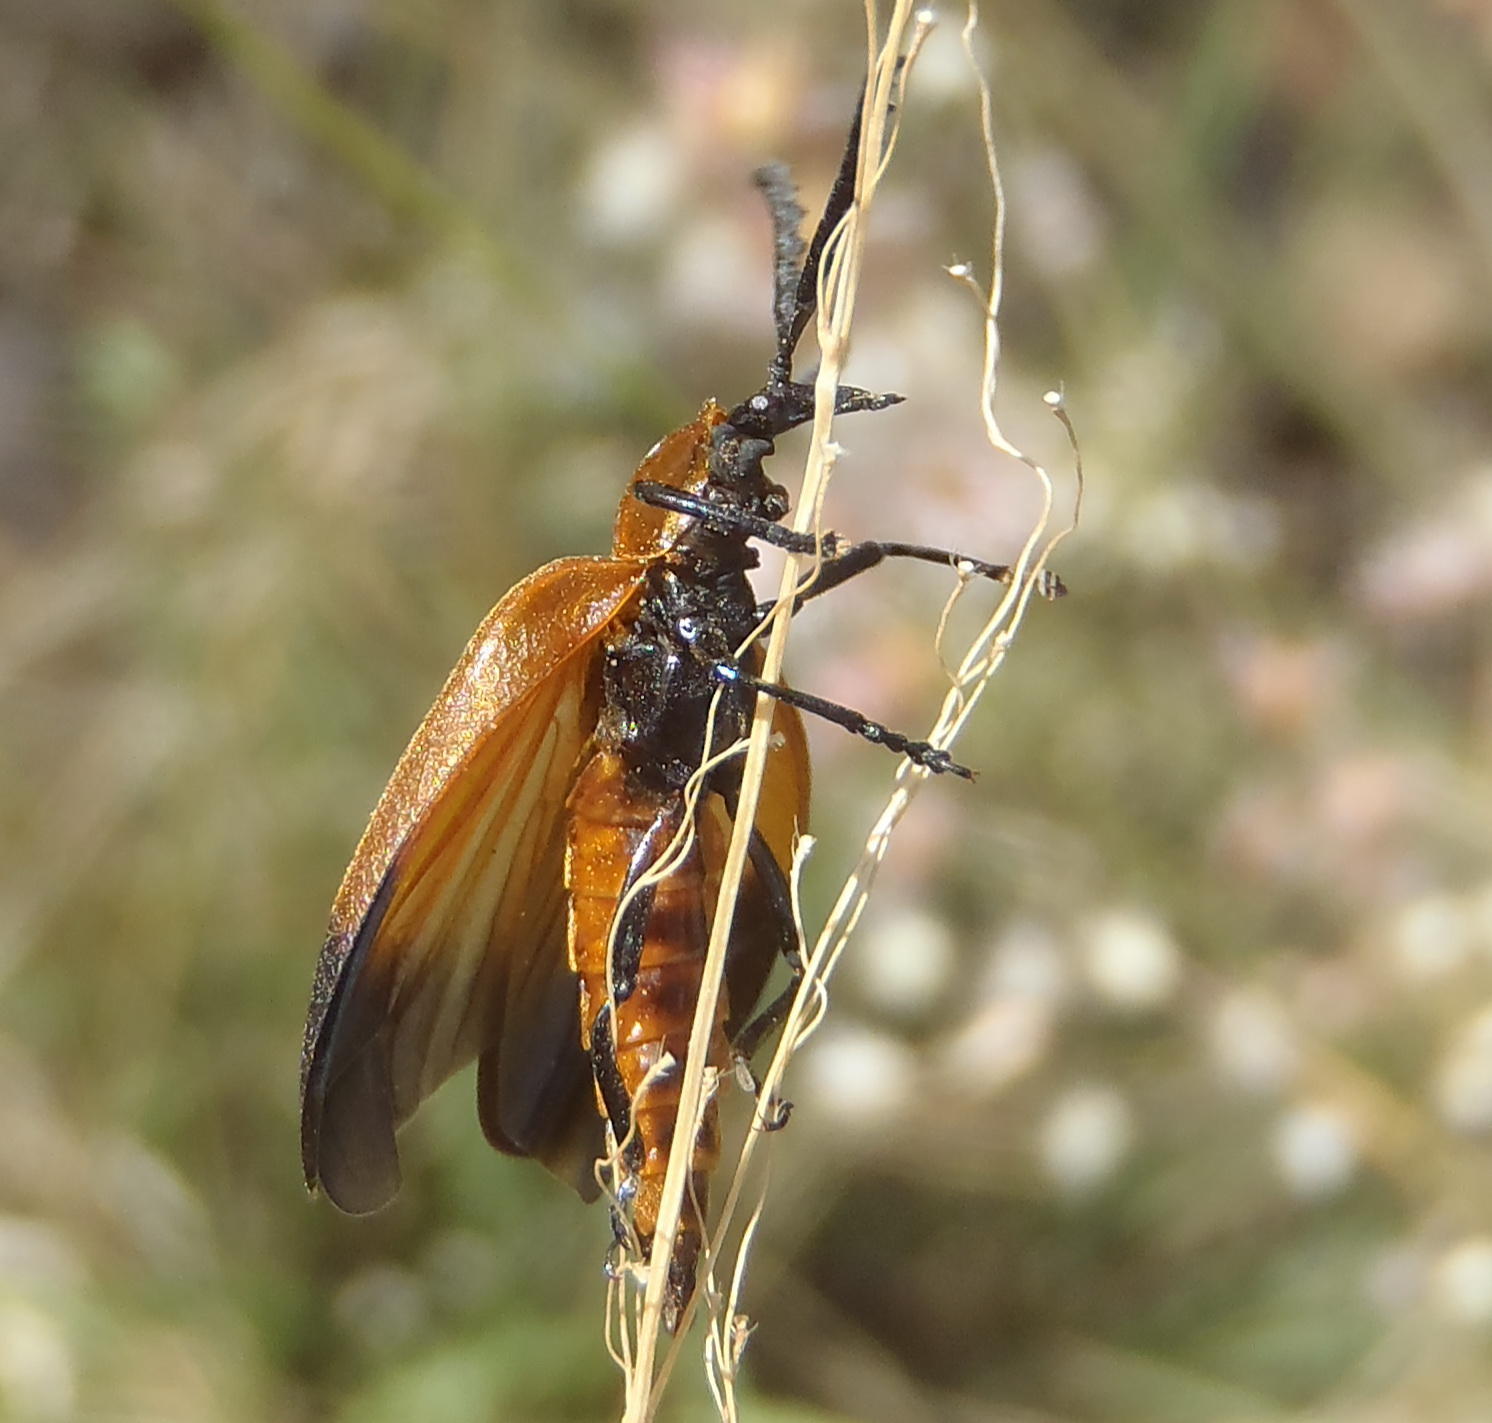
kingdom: Animalia
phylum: Arthropoda
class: Insecta
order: Coleoptera
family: Lycidae
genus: Lycus
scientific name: Lycus
